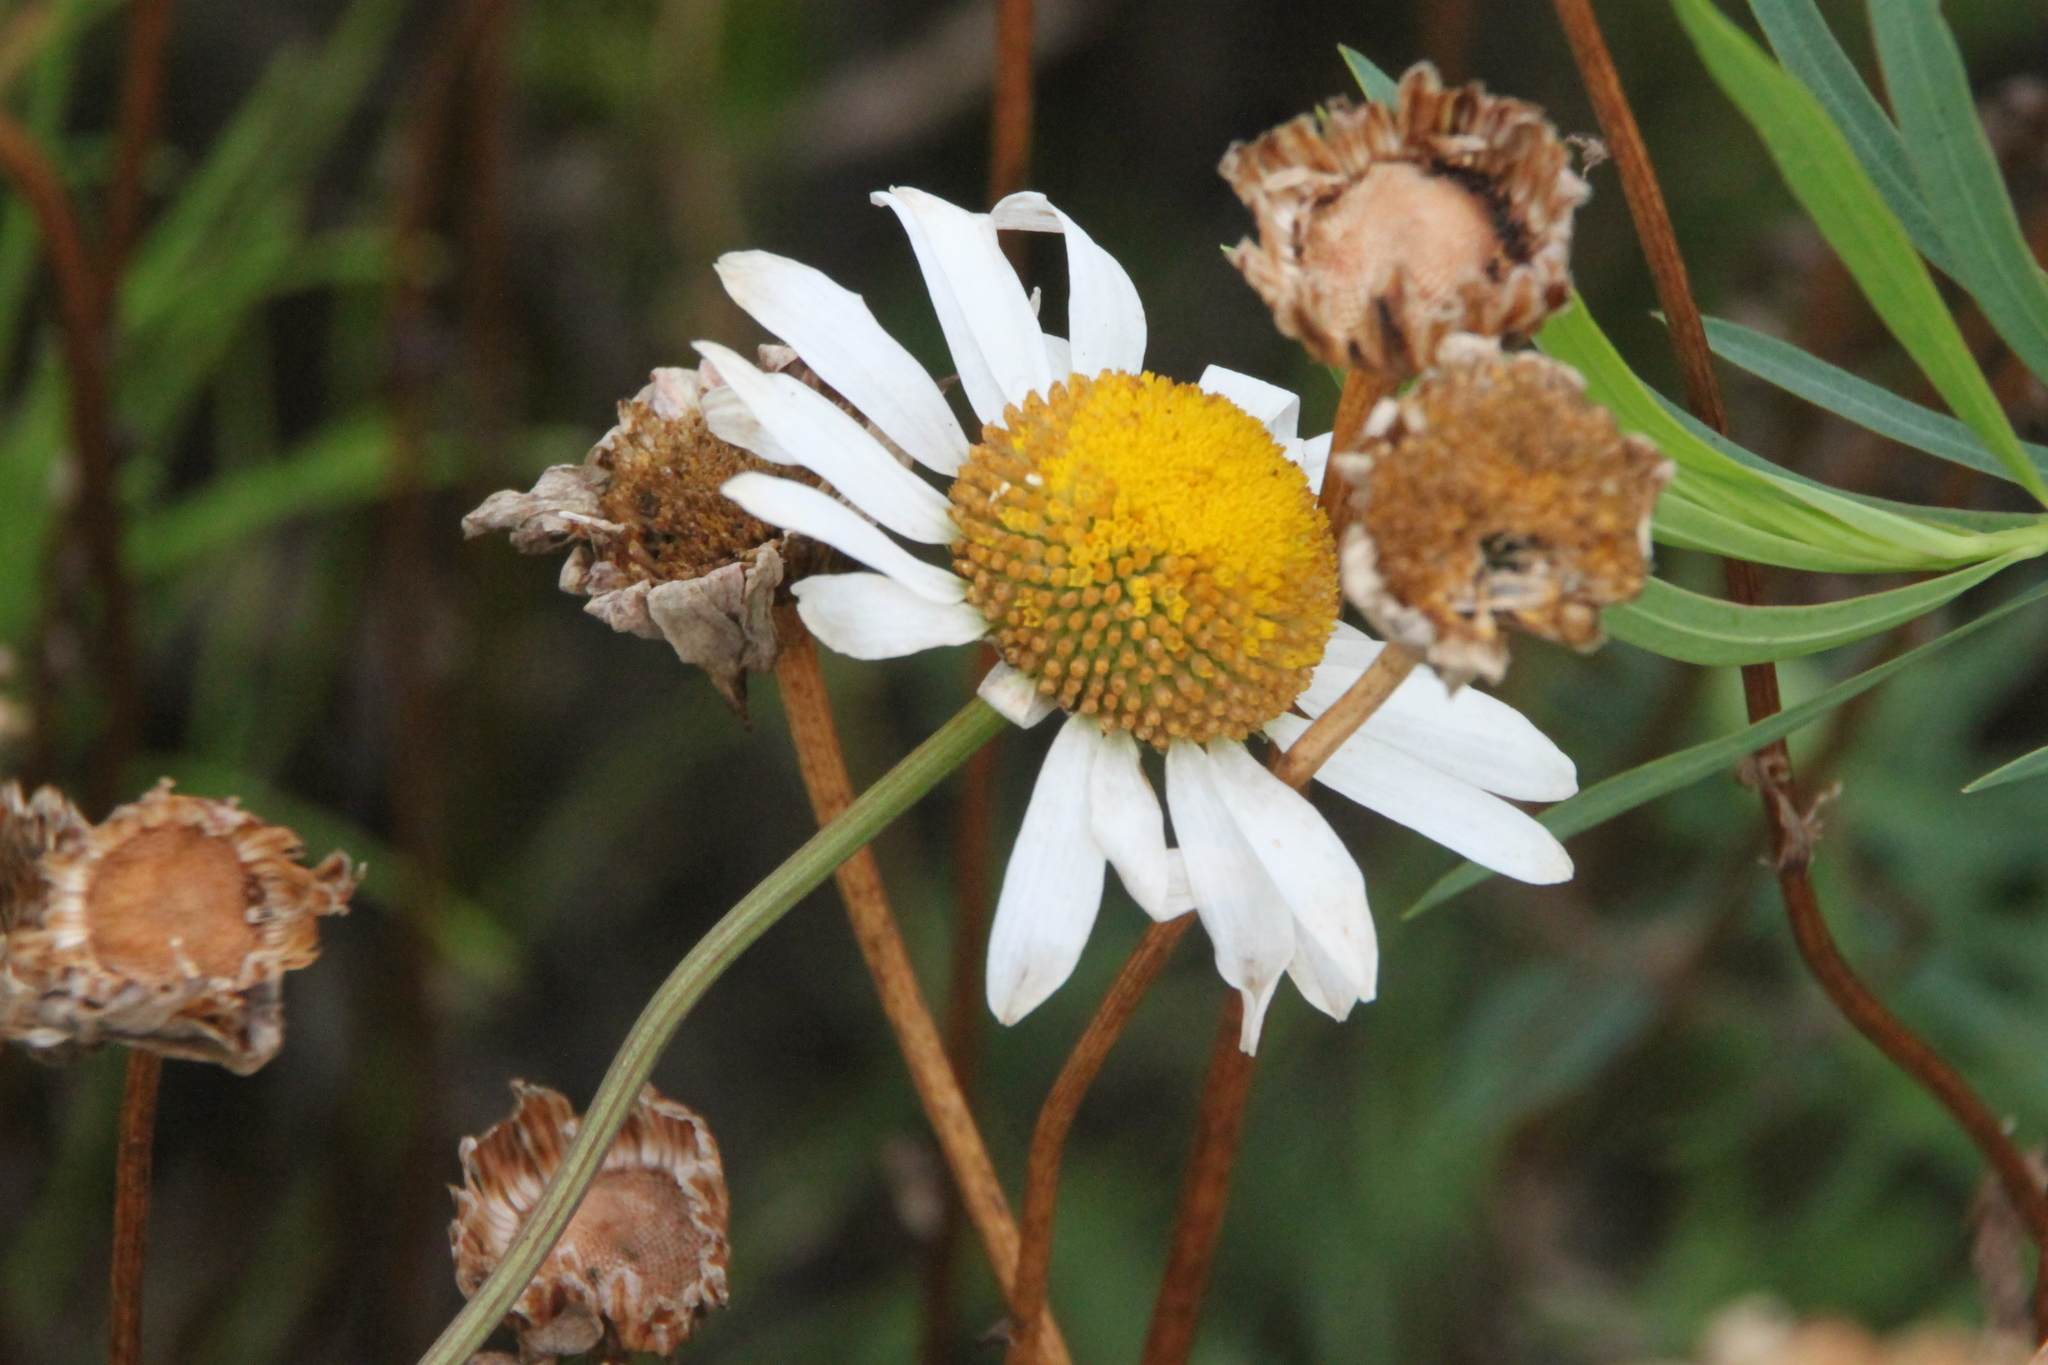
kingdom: Plantae
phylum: Tracheophyta
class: Magnoliopsida
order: Asterales
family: Asteraceae
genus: Leucanthemum
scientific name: Leucanthemum vulgare
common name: Oxeye daisy
